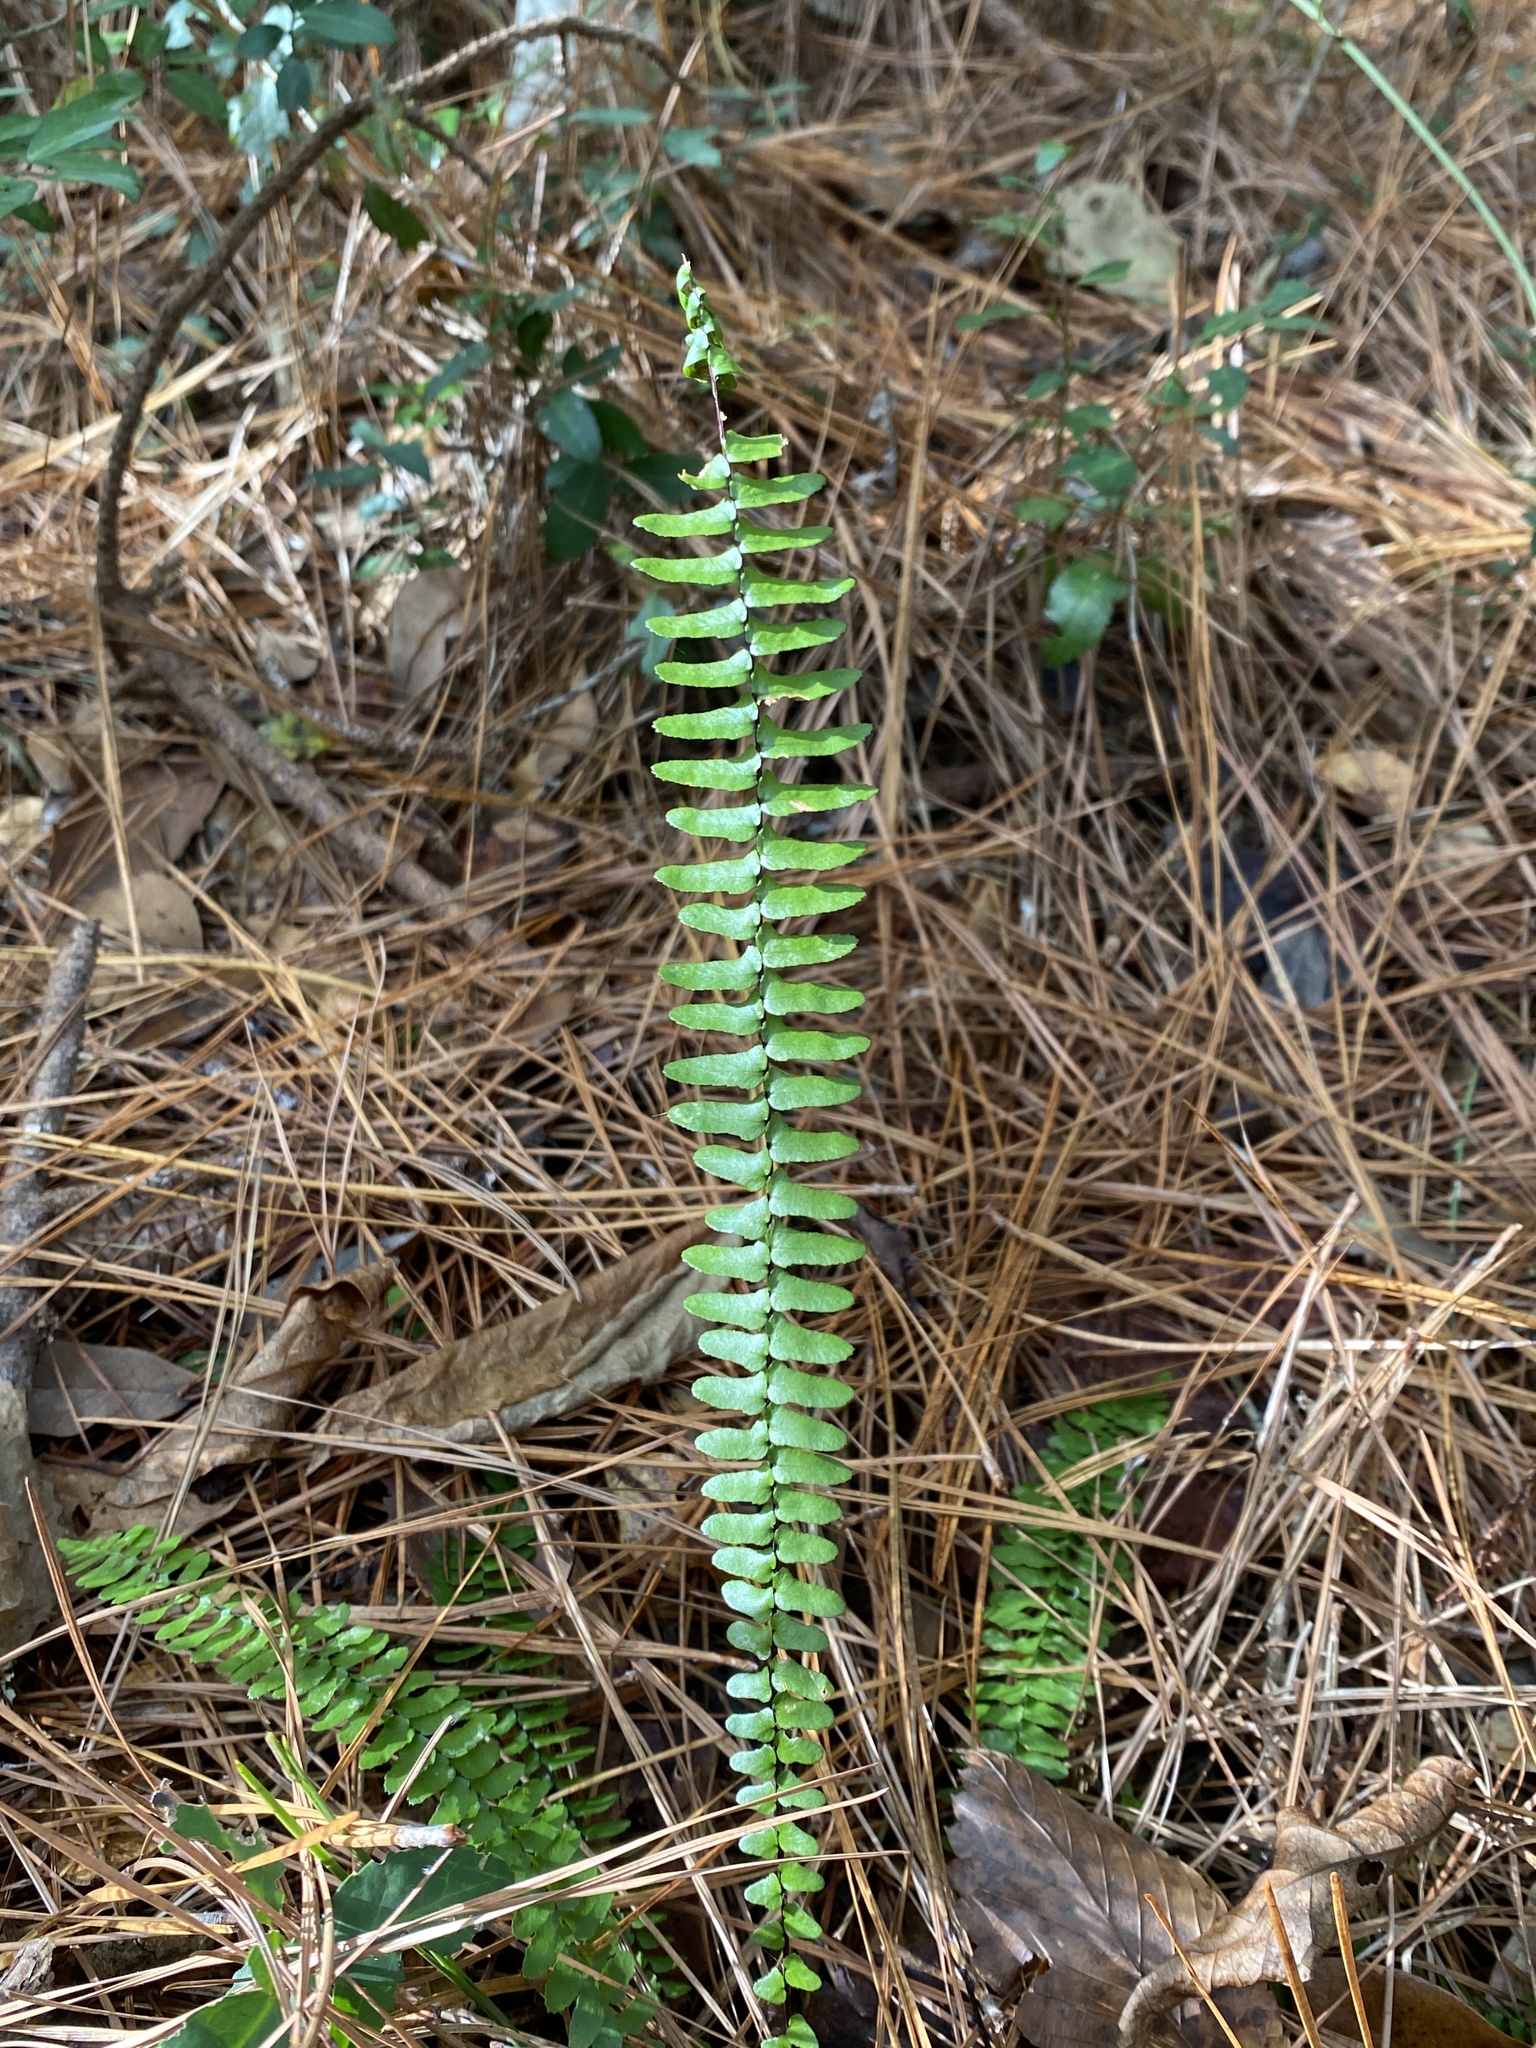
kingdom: Plantae
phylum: Tracheophyta
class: Polypodiopsida
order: Polypodiales
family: Aspleniaceae
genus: Asplenium
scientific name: Asplenium platyneuron
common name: Ebony spleenwort
